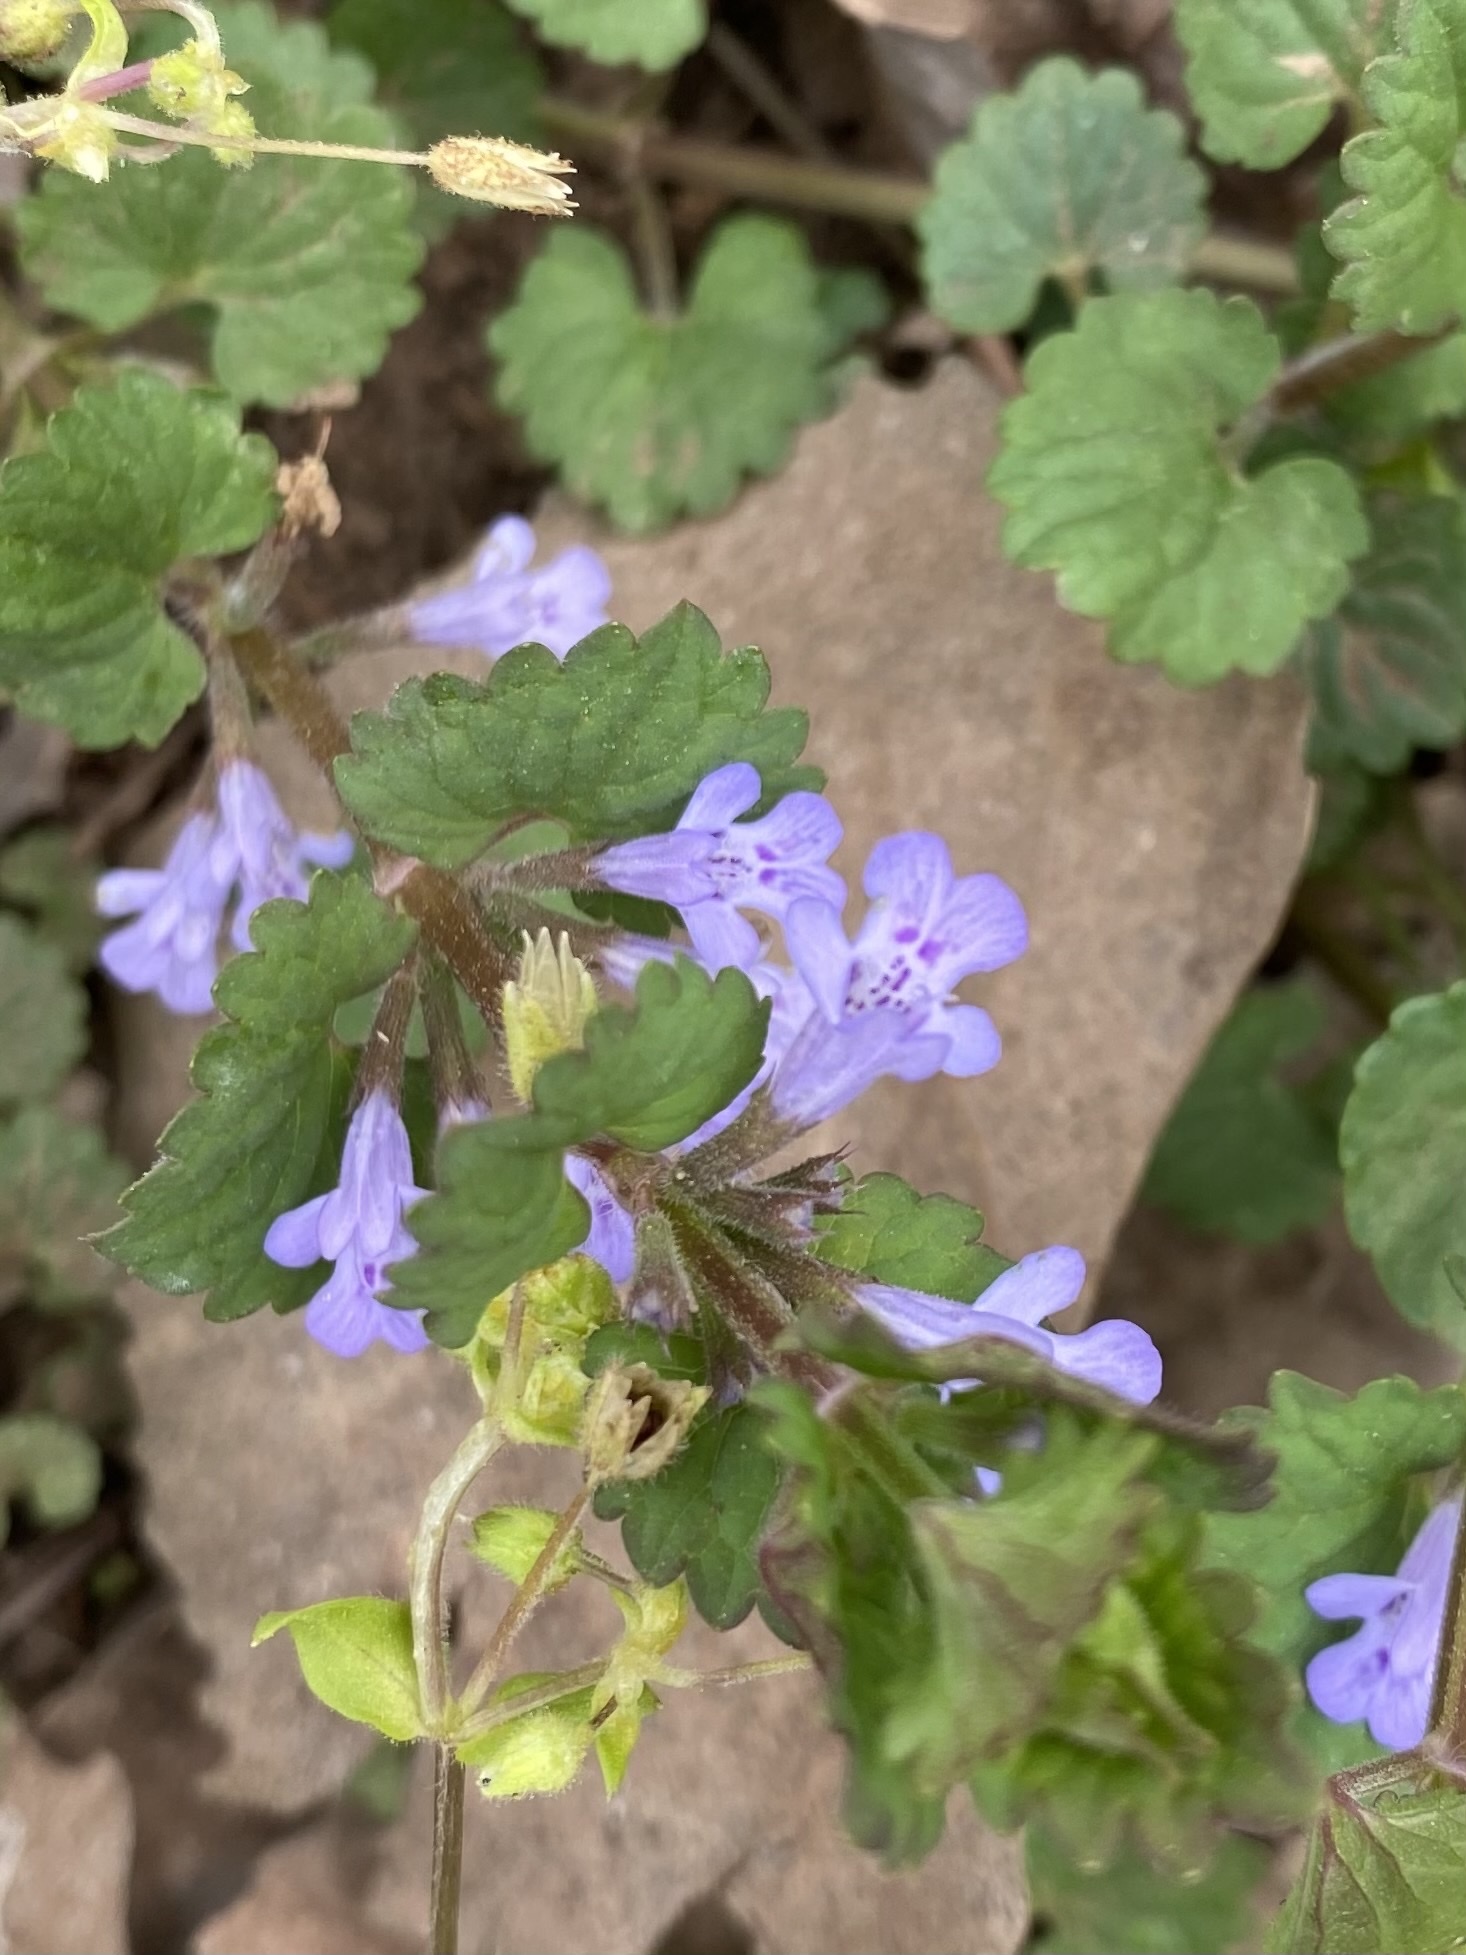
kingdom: Plantae
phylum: Tracheophyta
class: Magnoliopsida
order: Lamiales
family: Lamiaceae
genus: Glechoma
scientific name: Glechoma hederacea
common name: Ground ivy
